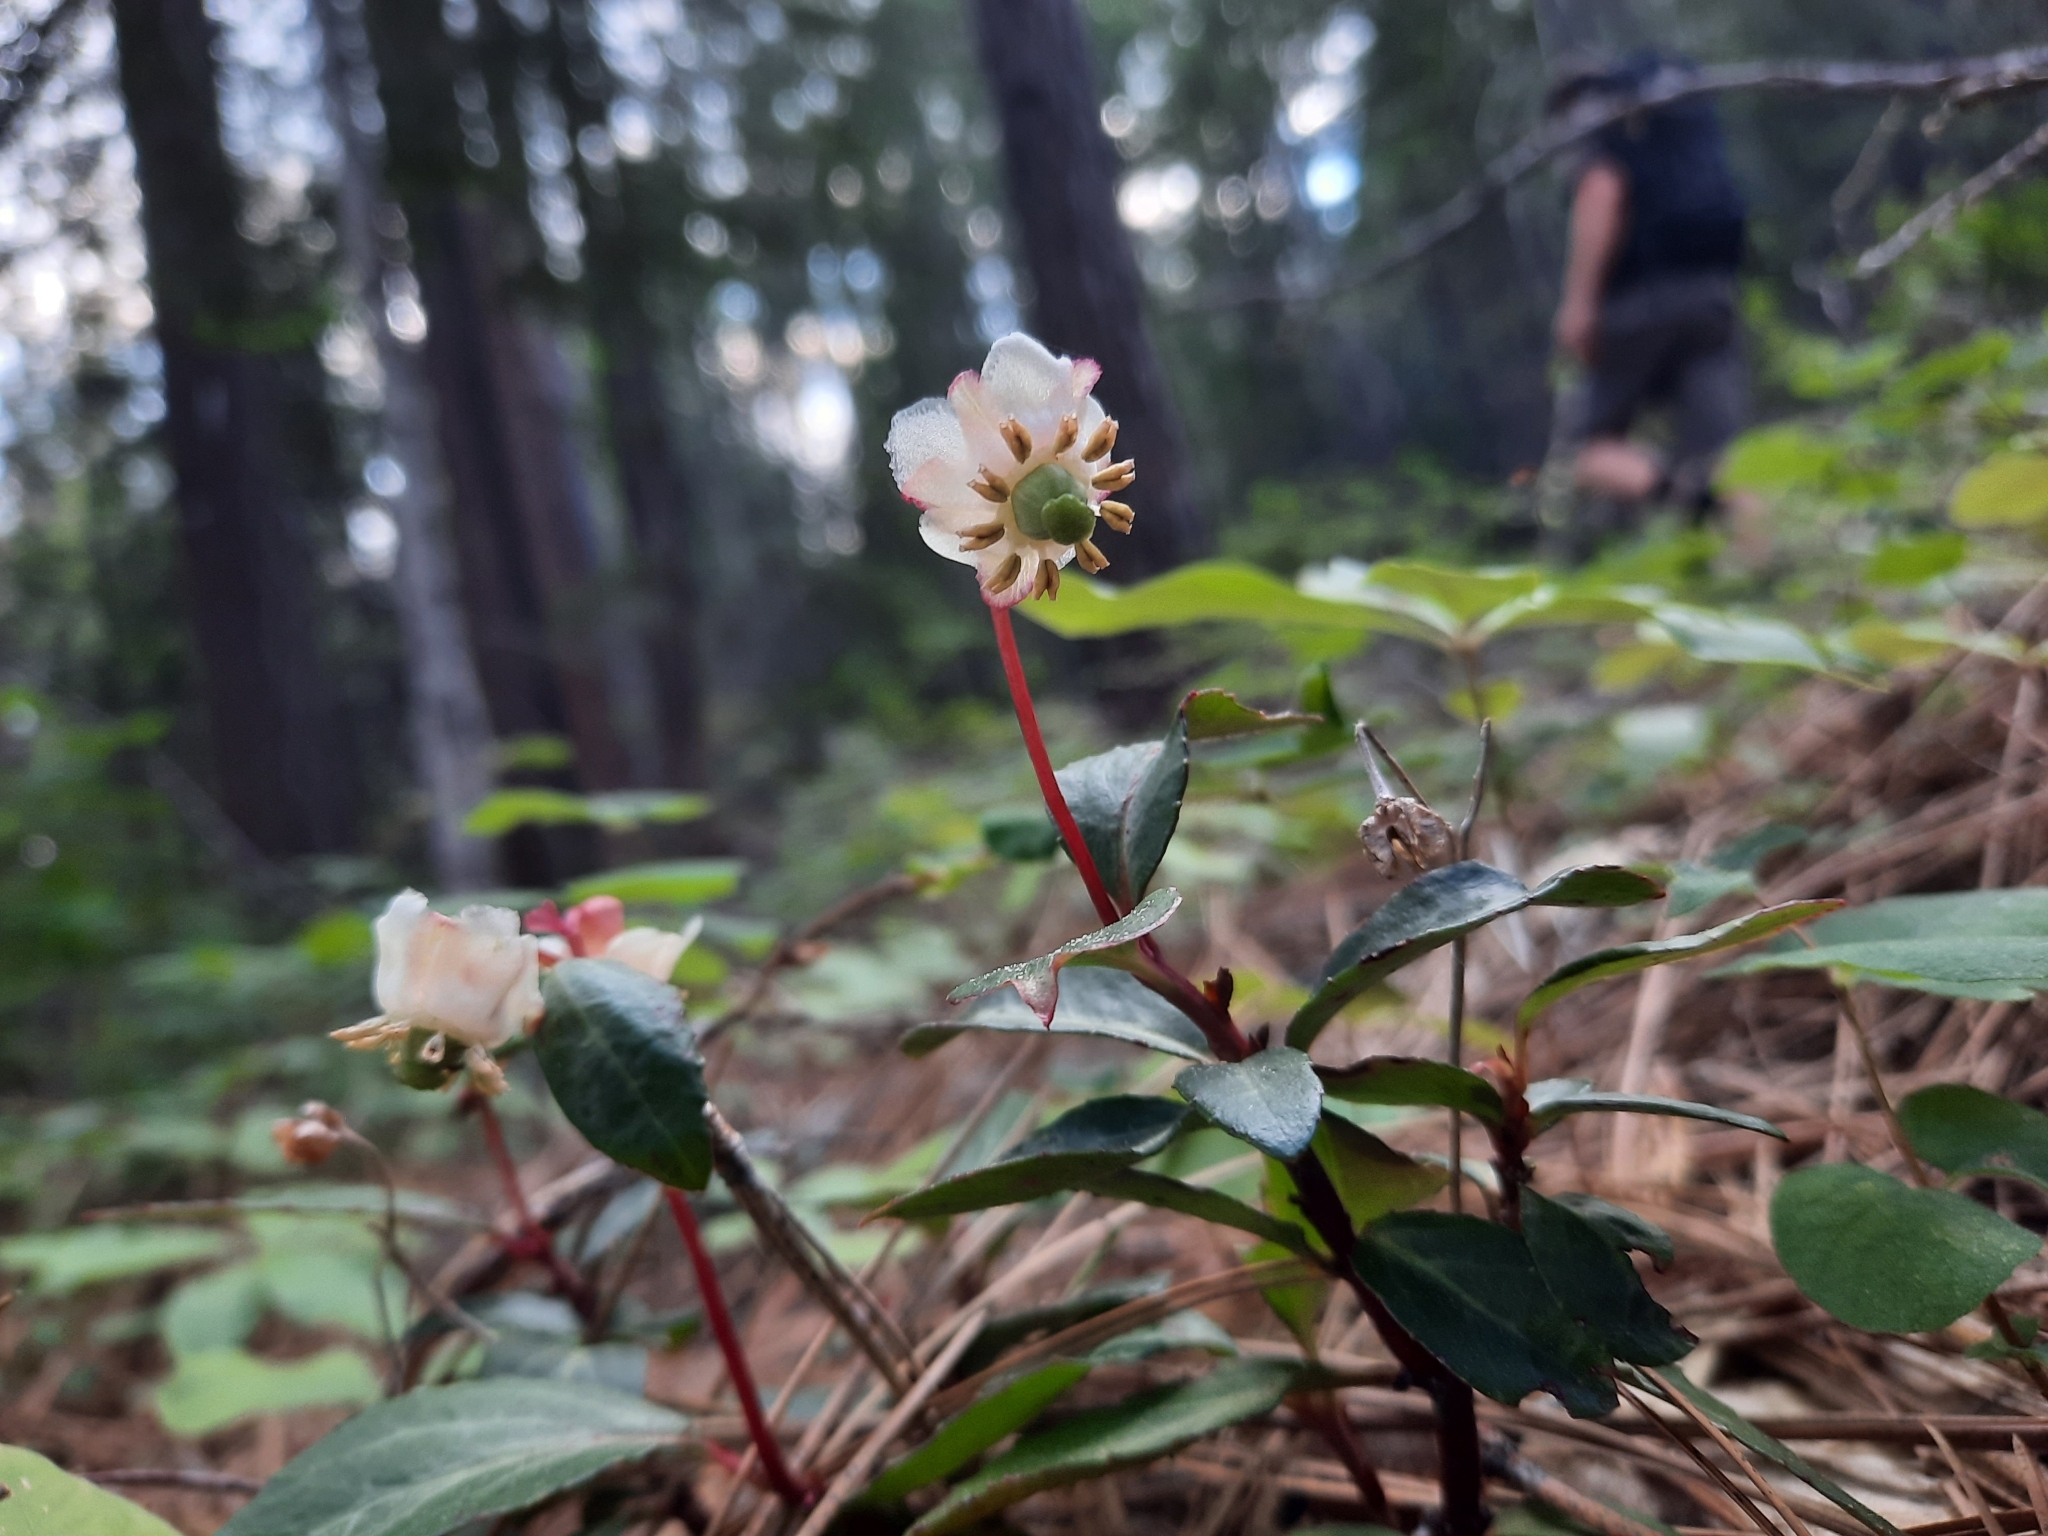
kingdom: Plantae
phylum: Tracheophyta
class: Magnoliopsida
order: Ericales
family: Ericaceae
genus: Chimaphila
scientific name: Chimaphila menziesii
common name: Menzies' pipsissewa
